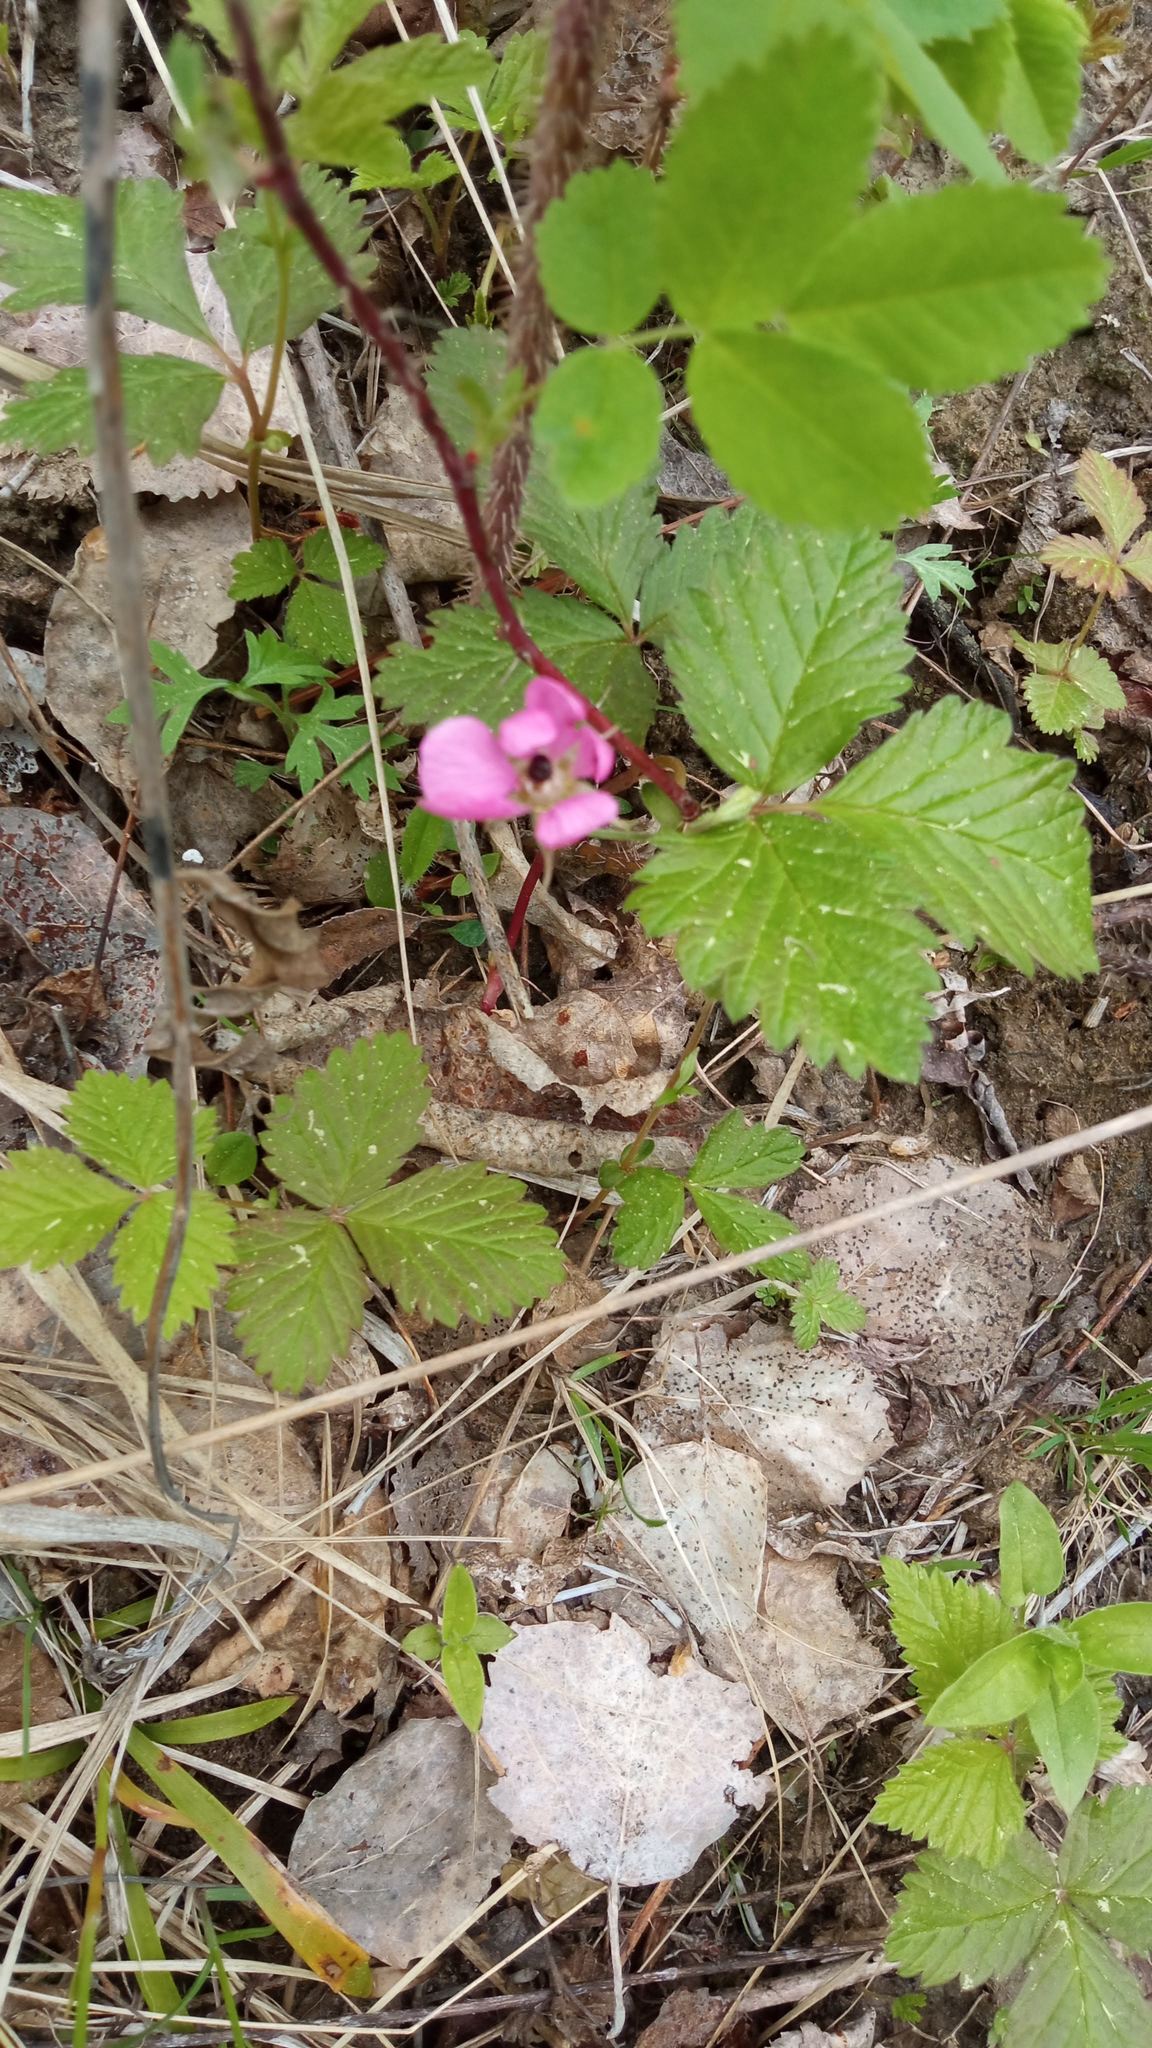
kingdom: Plantae
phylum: Tracheophyta
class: Magnoliopsida
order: Rosales
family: Rosaceae
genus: Rubus
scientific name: Rubus arcticus
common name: Arctic bramble
